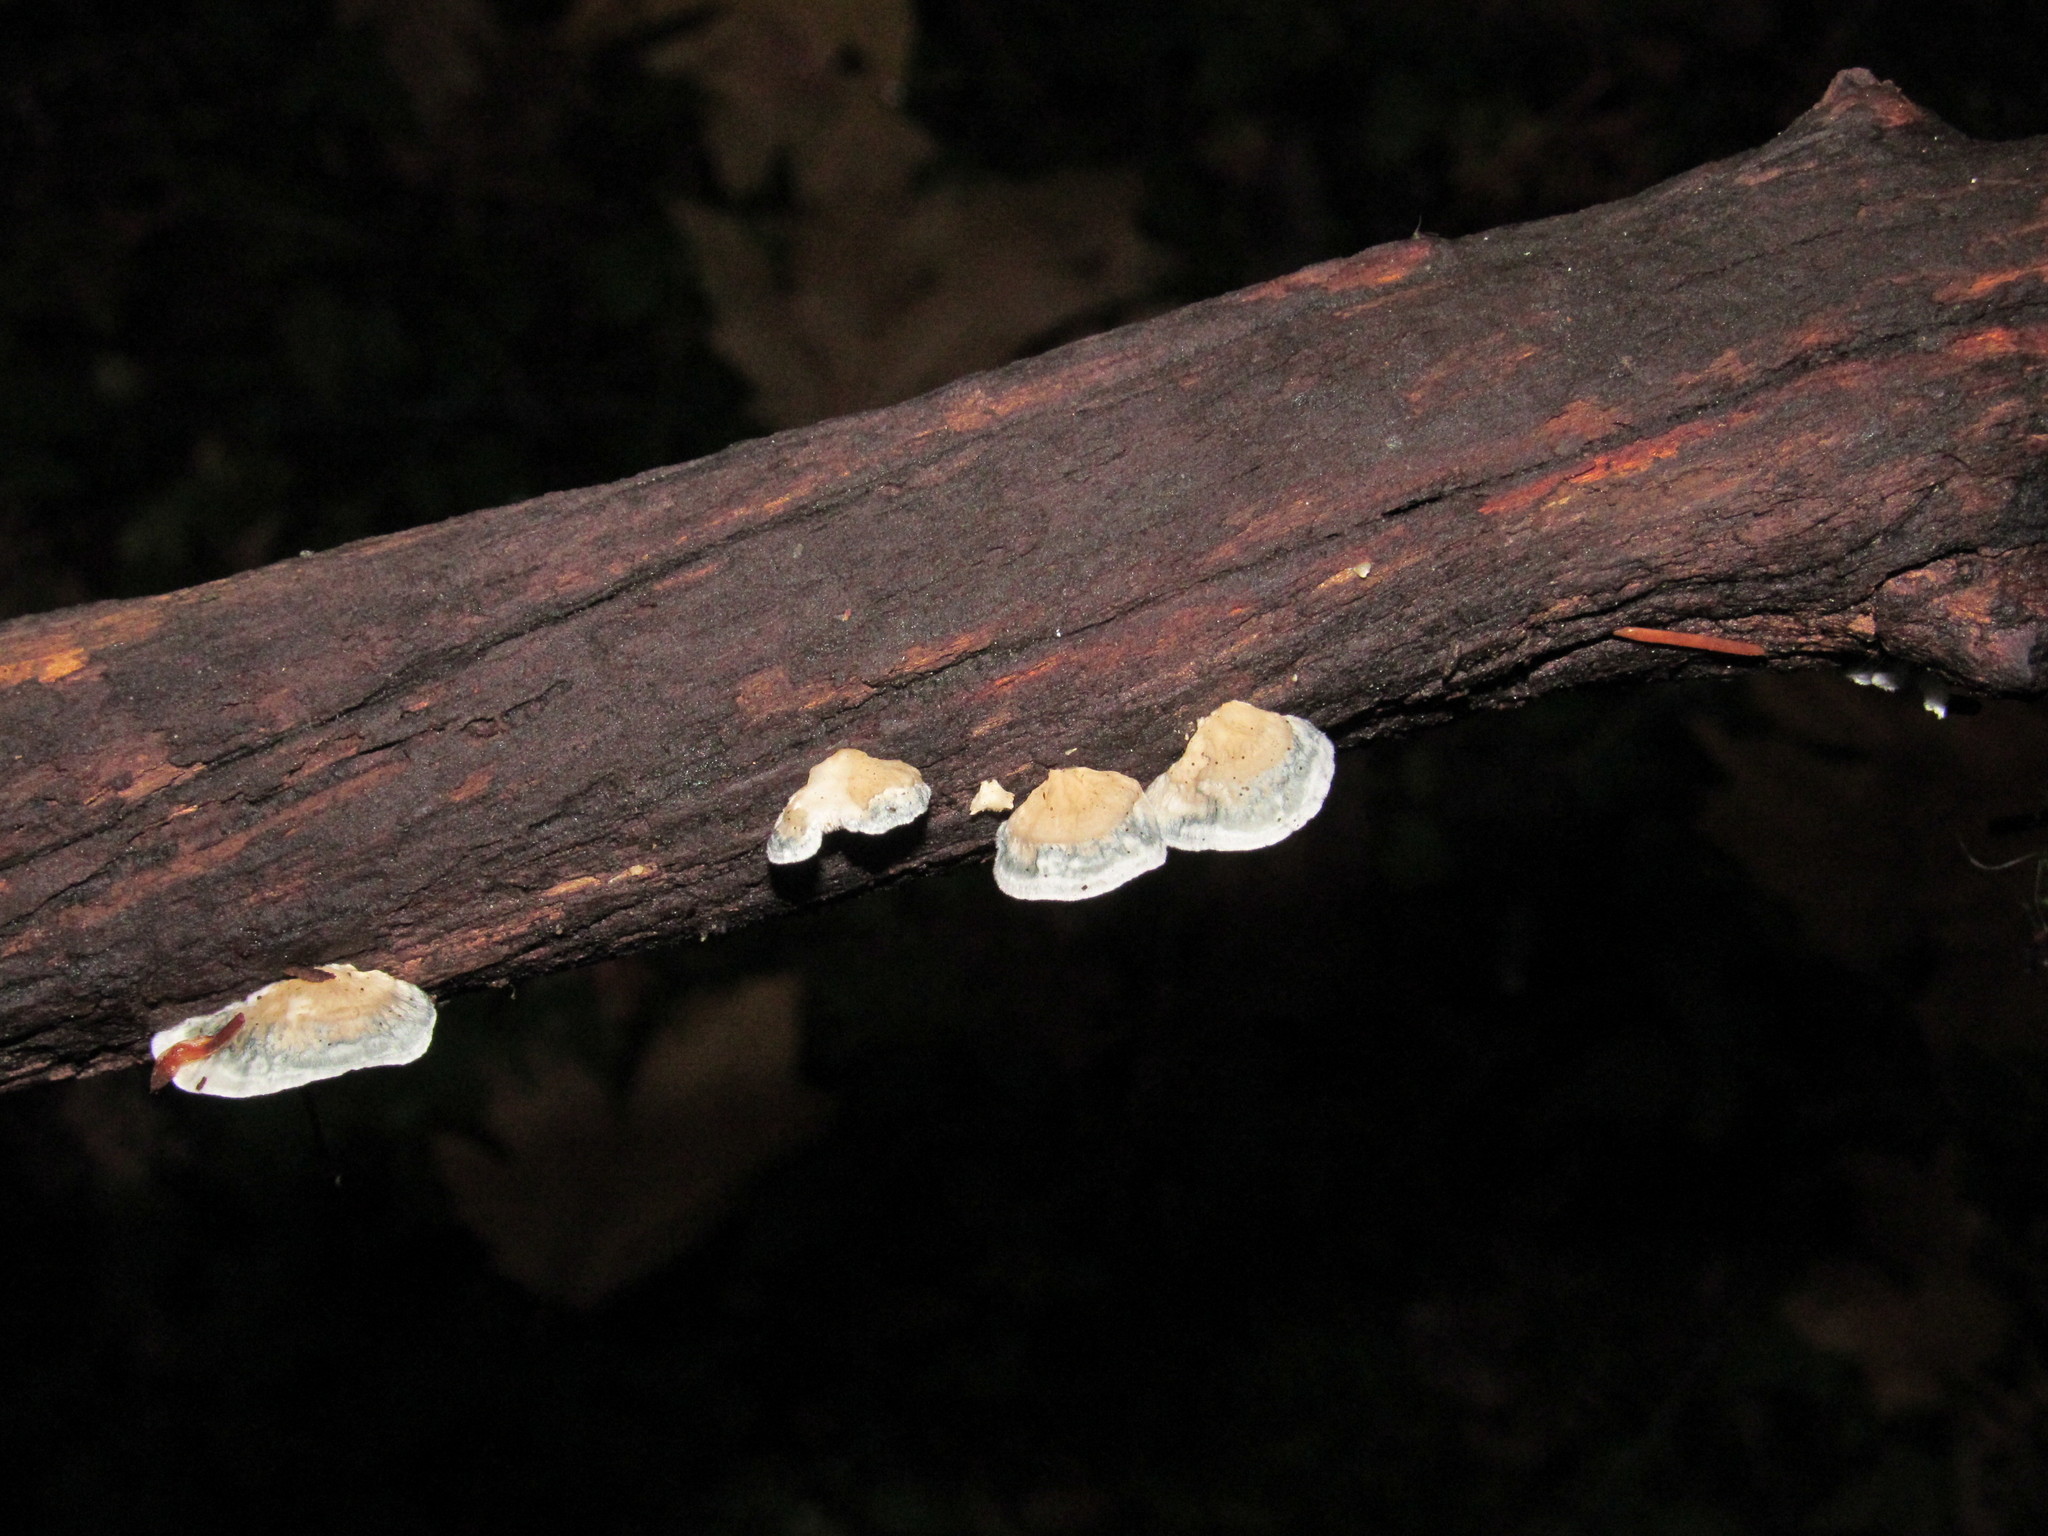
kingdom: Fungi
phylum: Basidiomycota
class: Agaricomycetes
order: Polyporales
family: Polyporaceae
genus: Cyanosporus
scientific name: Cyanosporus caesius
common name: Blue cheese polypore
